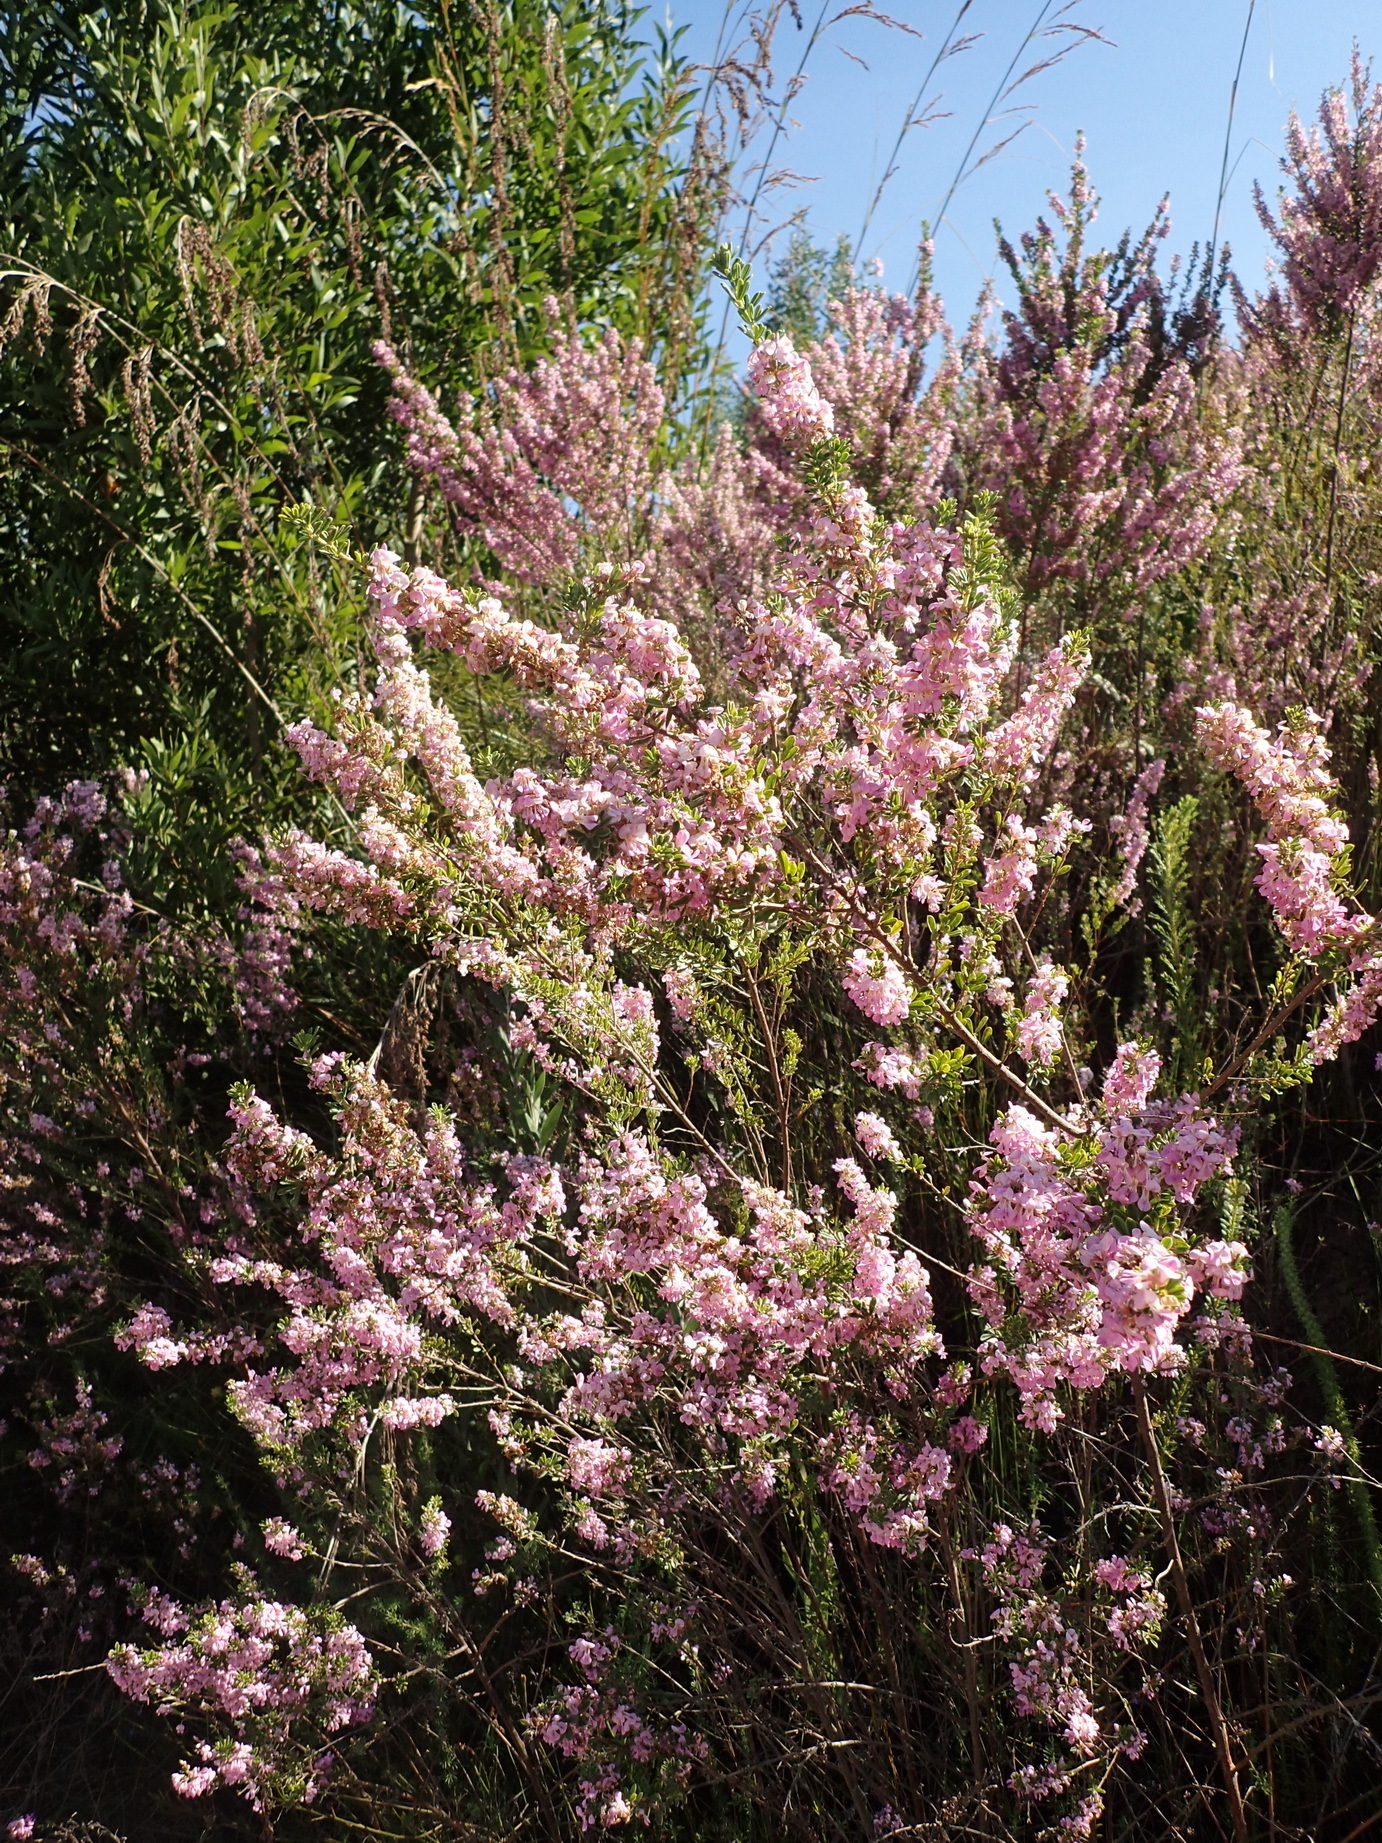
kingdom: Plantae
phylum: Tracheophyta
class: Magnoliopsida
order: Fabales
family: Fabaceae
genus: Indigofera
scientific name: Indigofera flabellata
